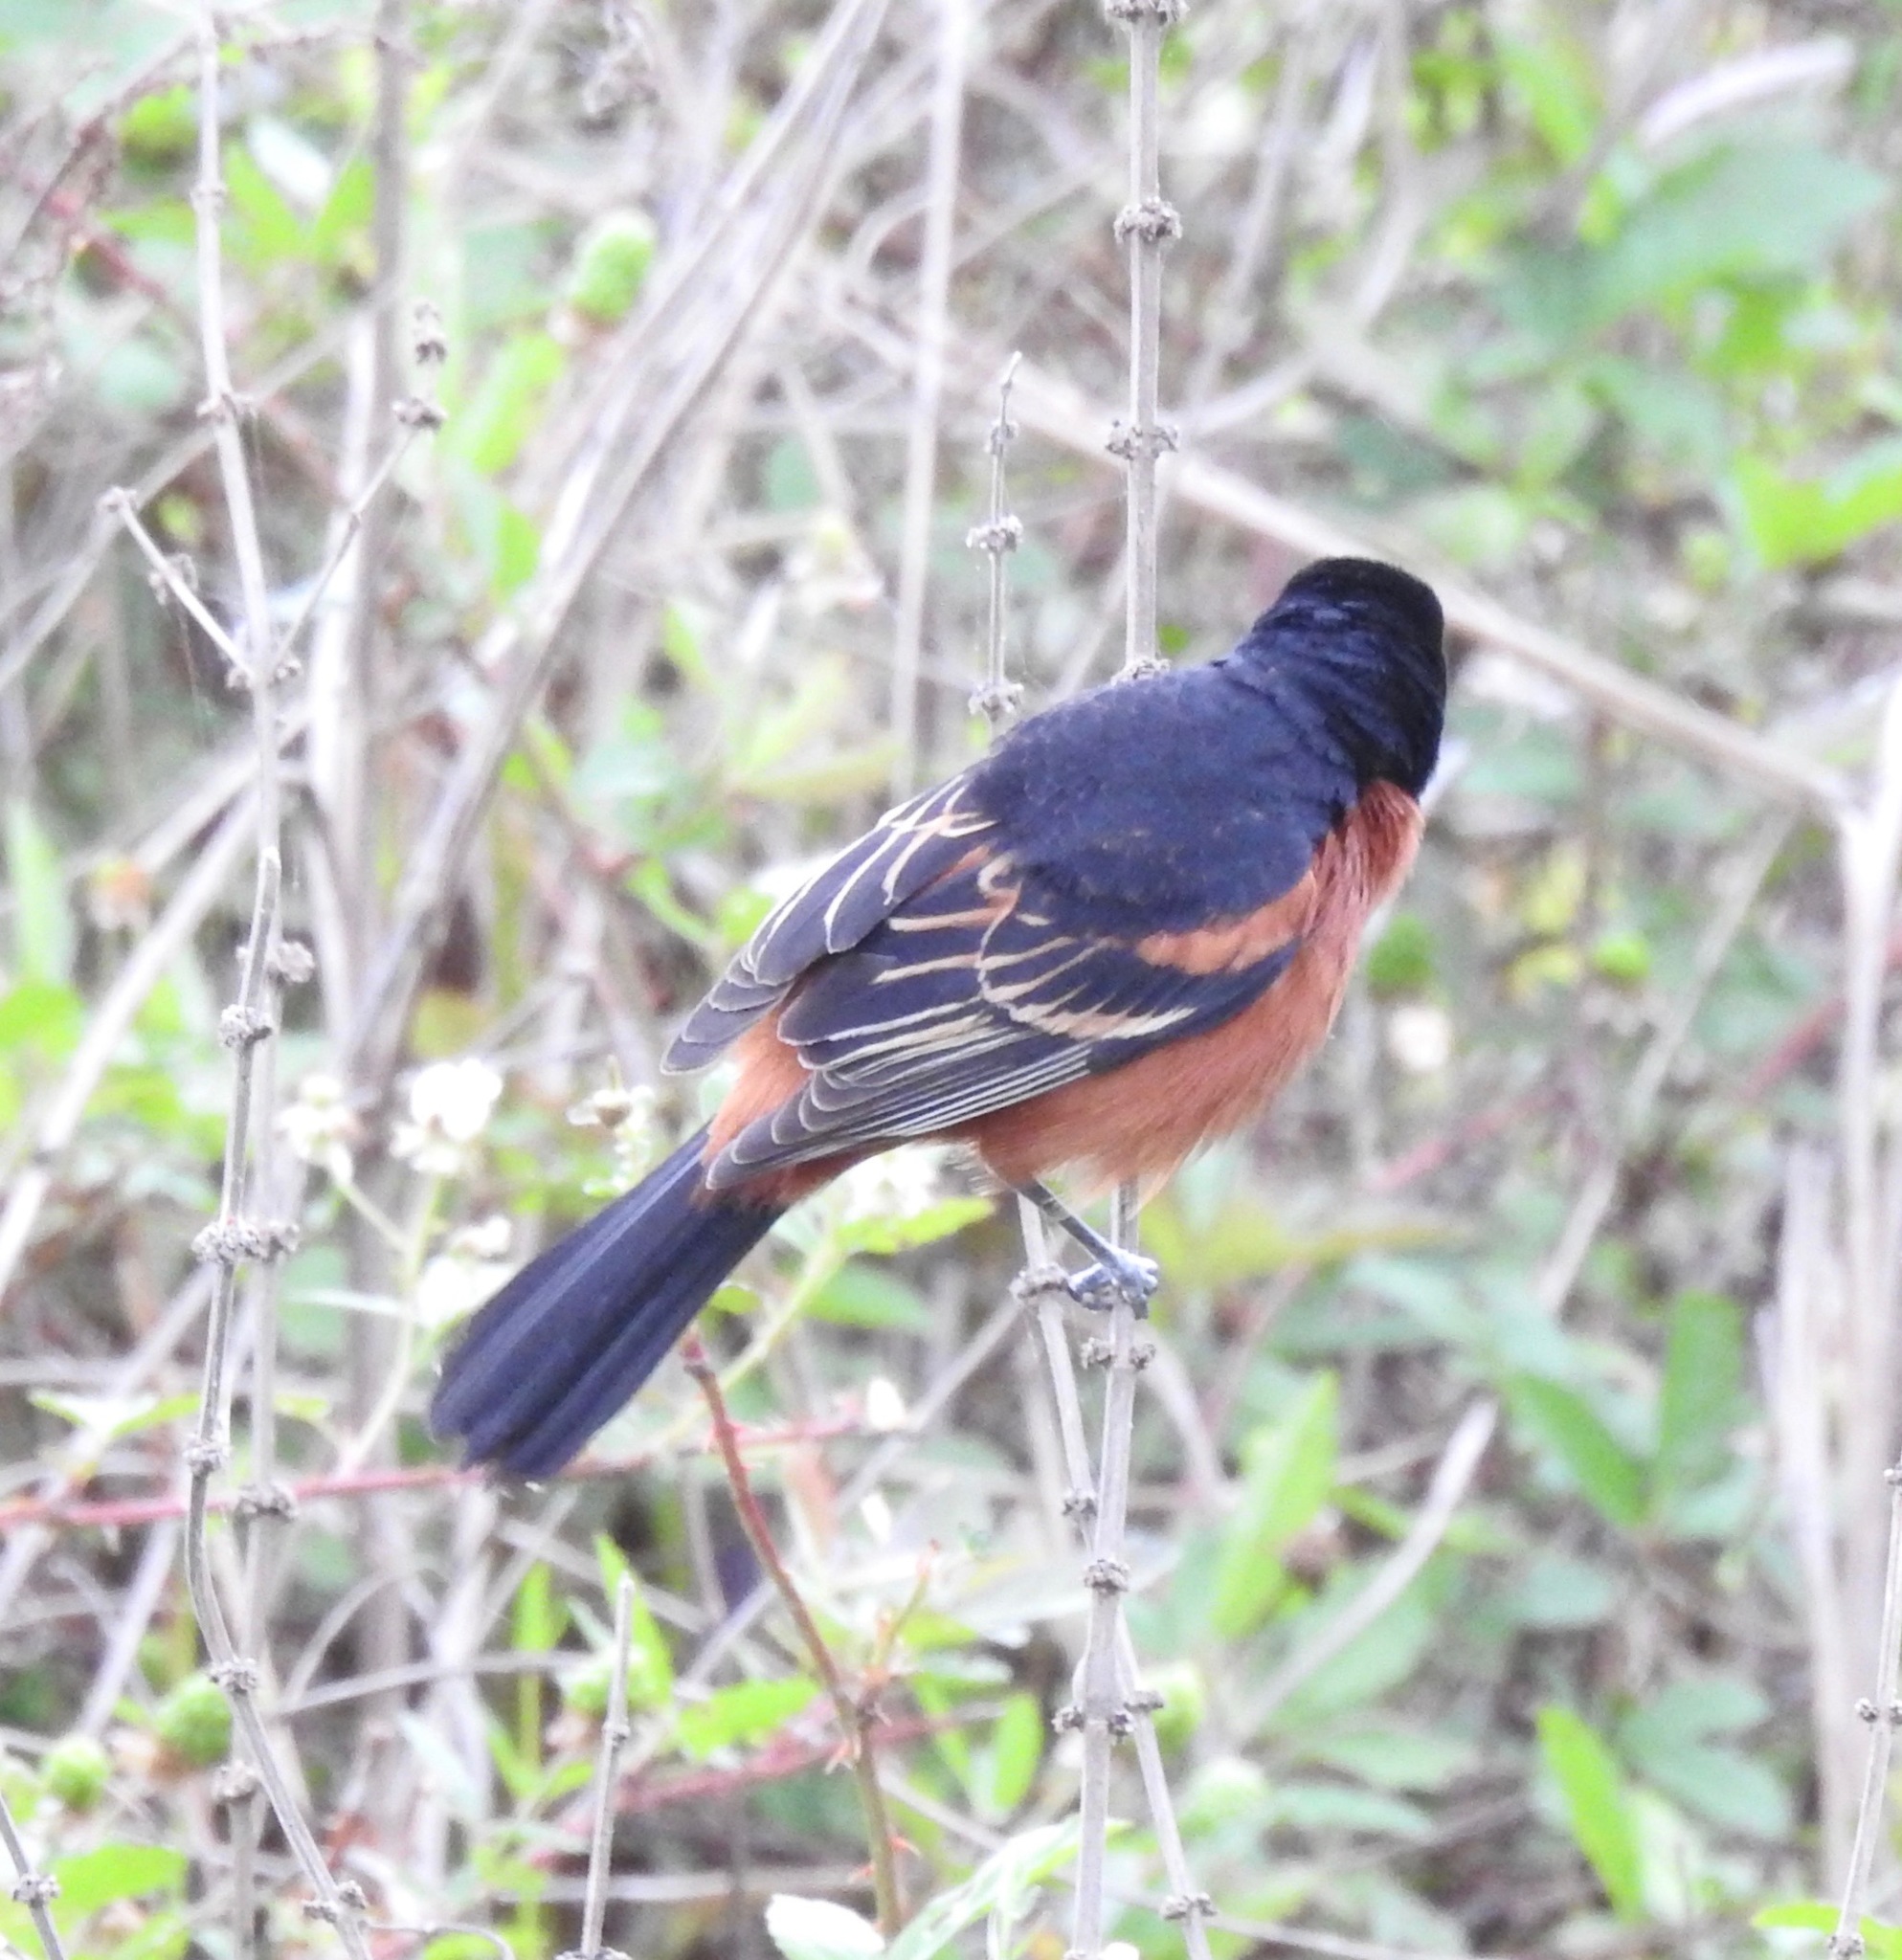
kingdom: Animalia
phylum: Chordata
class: Aves
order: Passeriformes
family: Icteridae
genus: Icterus
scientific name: Icterus spurius
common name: Orchard oriole
